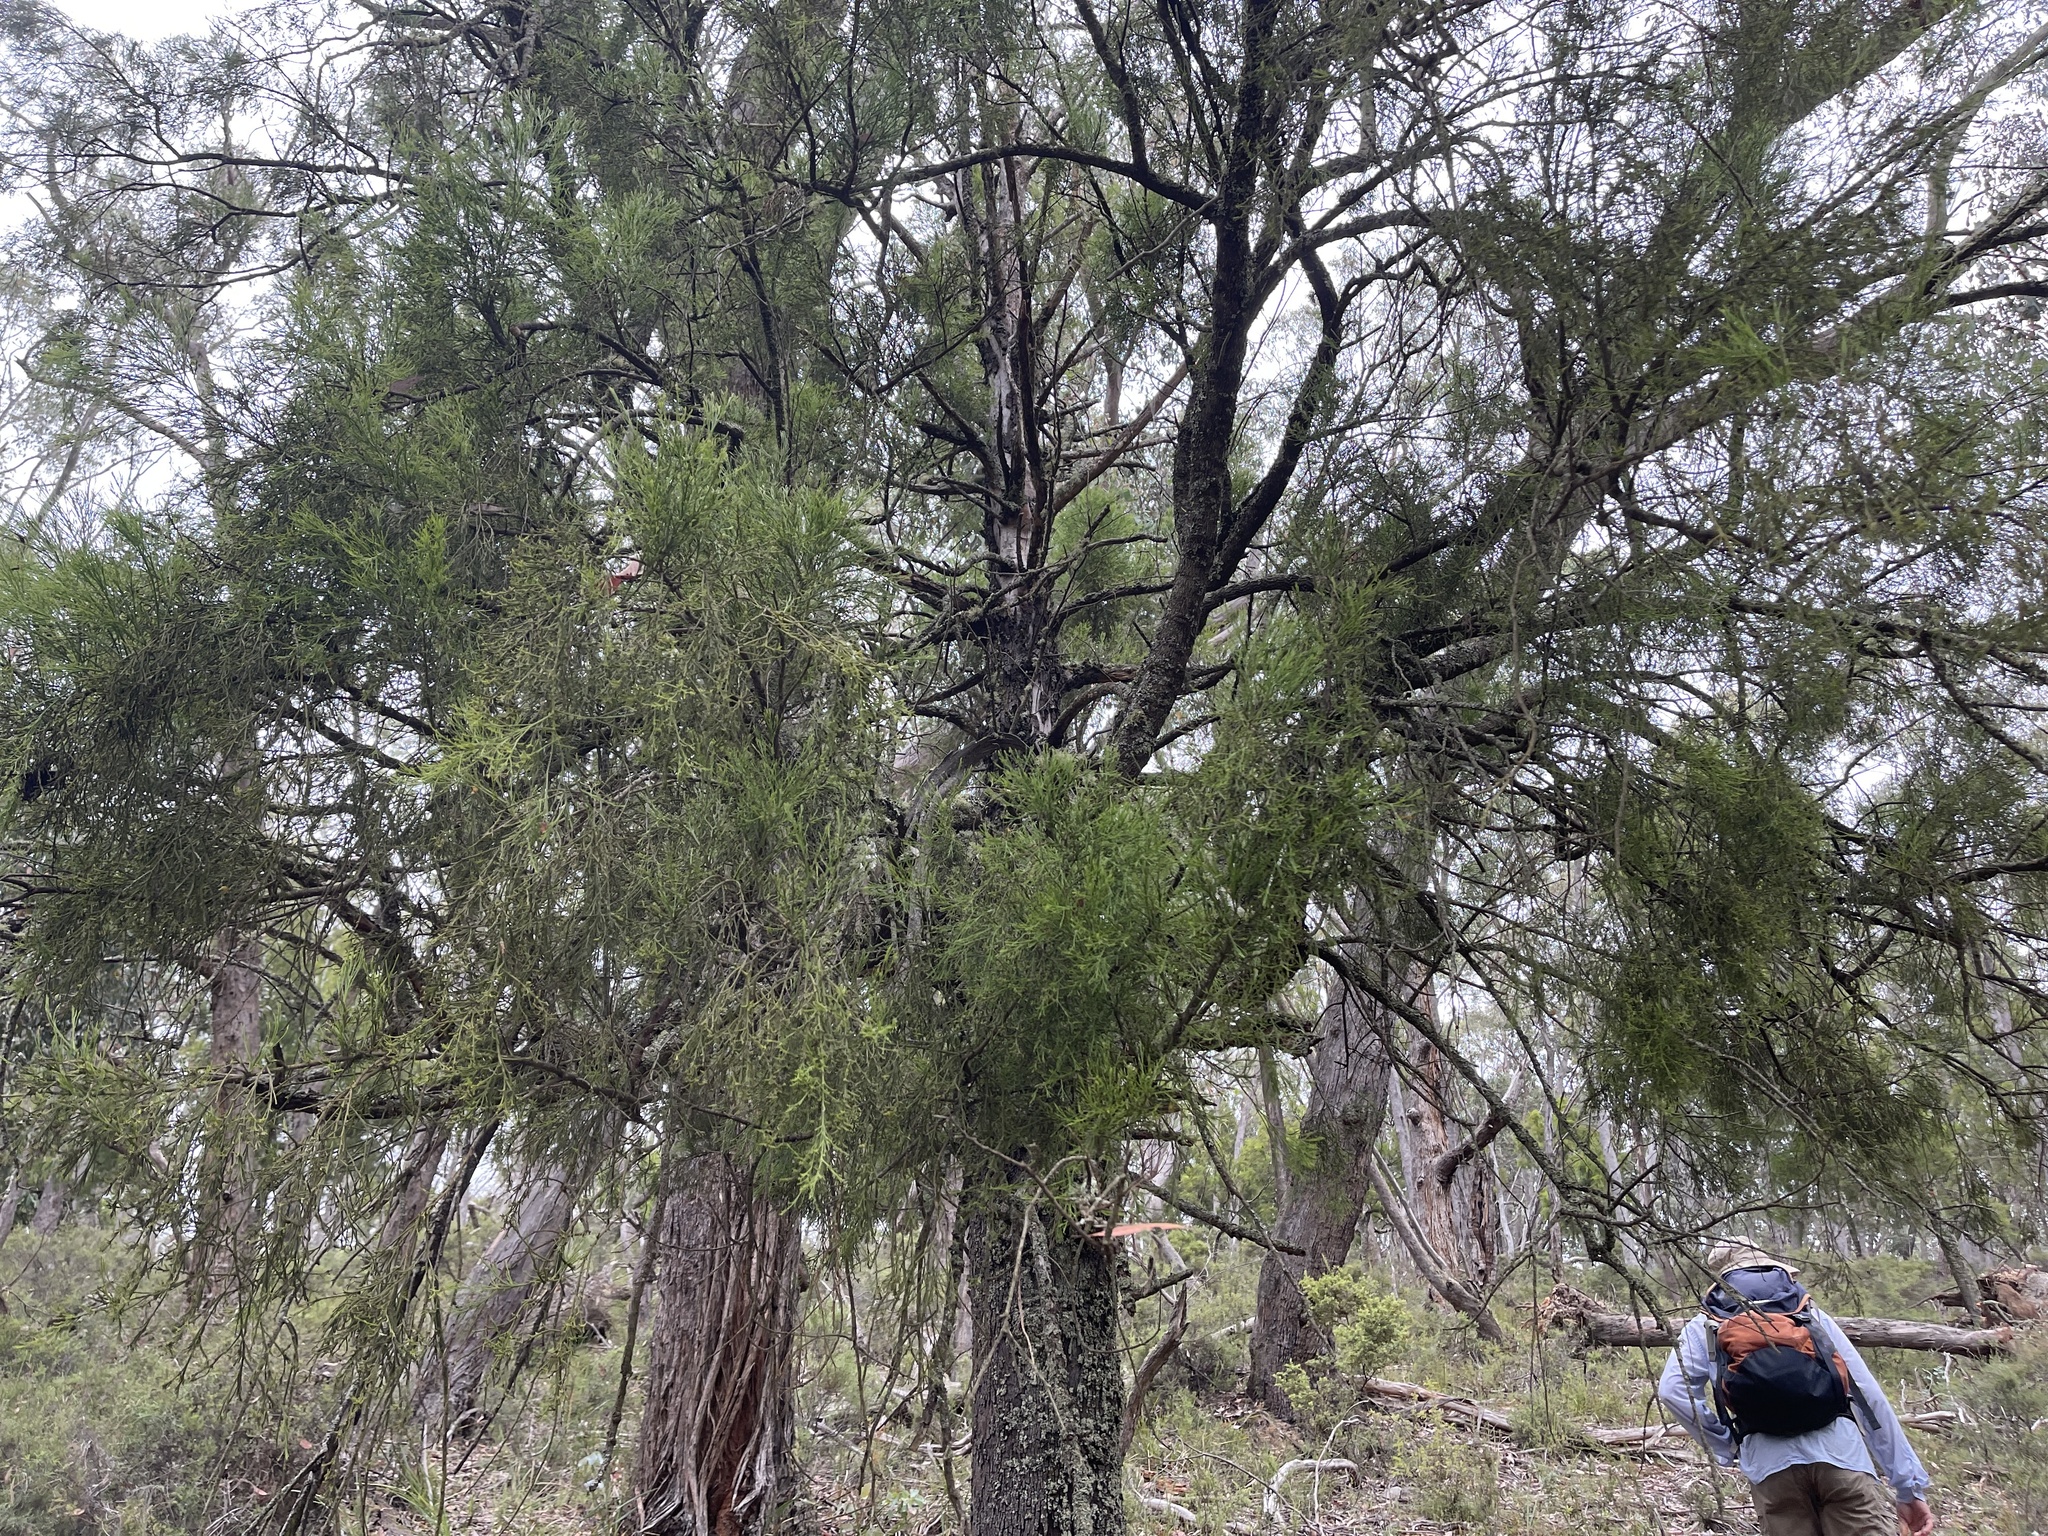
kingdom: Plantae
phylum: Tracheophyta
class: Magnoliopsida
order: Santalales
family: Santalaceae
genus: Exocarpos
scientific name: Exocarpos cupressiformis
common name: Cherry ballart
